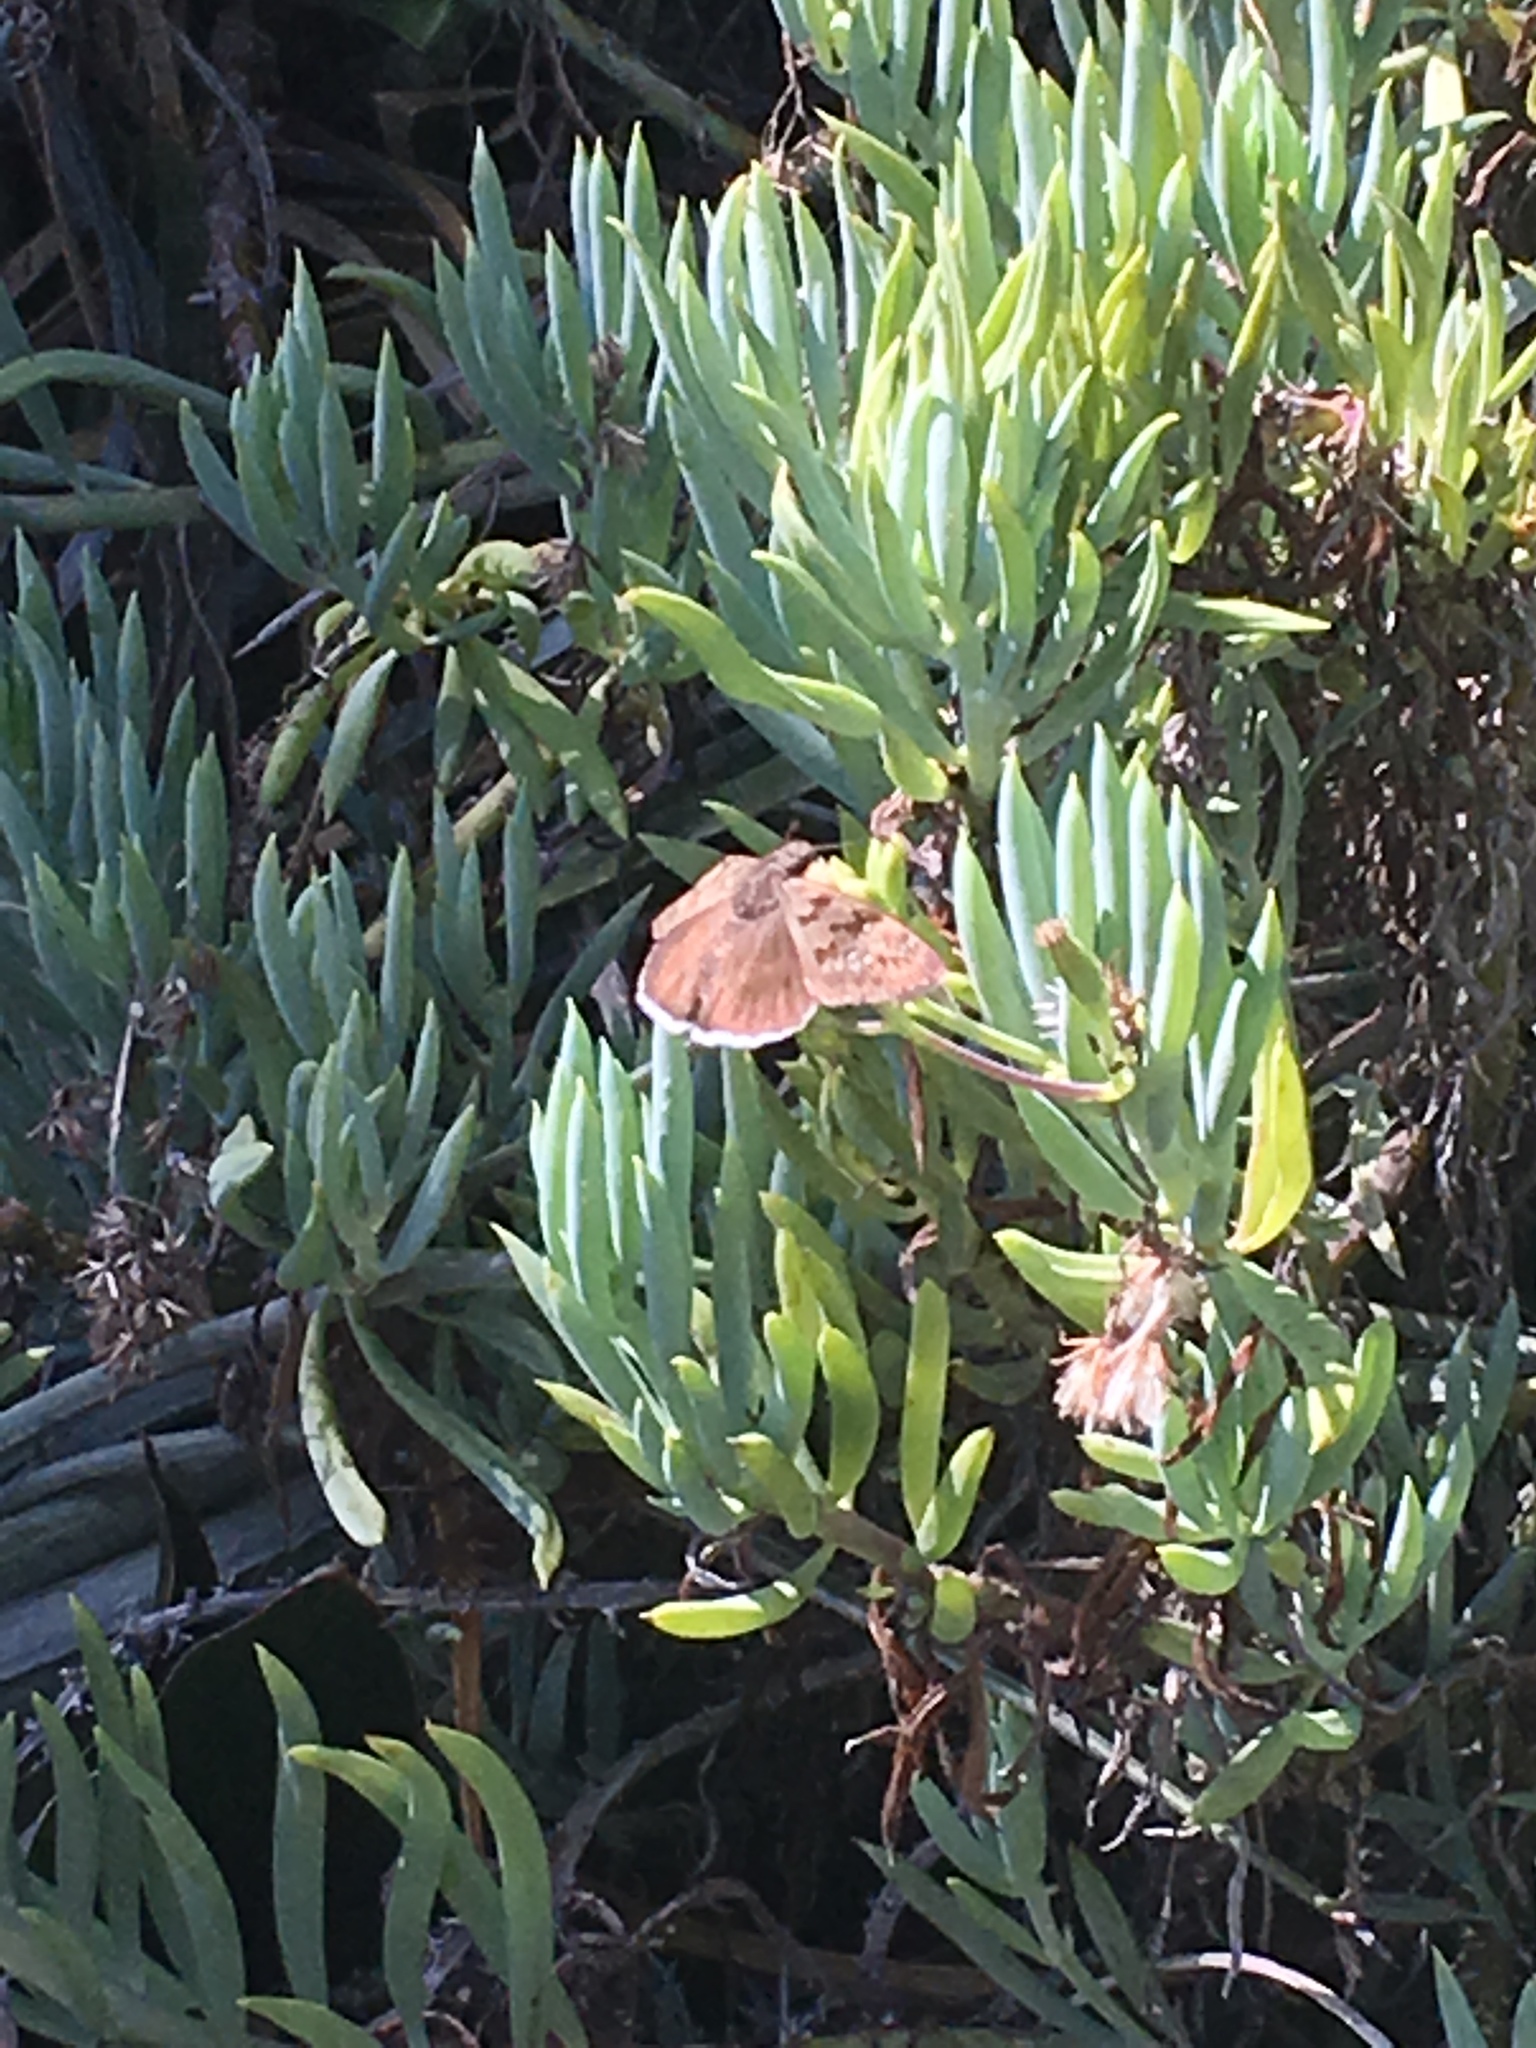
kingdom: Animalia
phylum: Arthropoda
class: Insecta
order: Lepidoptera
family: Hesperiidae
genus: Erynnis
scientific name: Erynnis tristis
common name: Mournful duskywing
